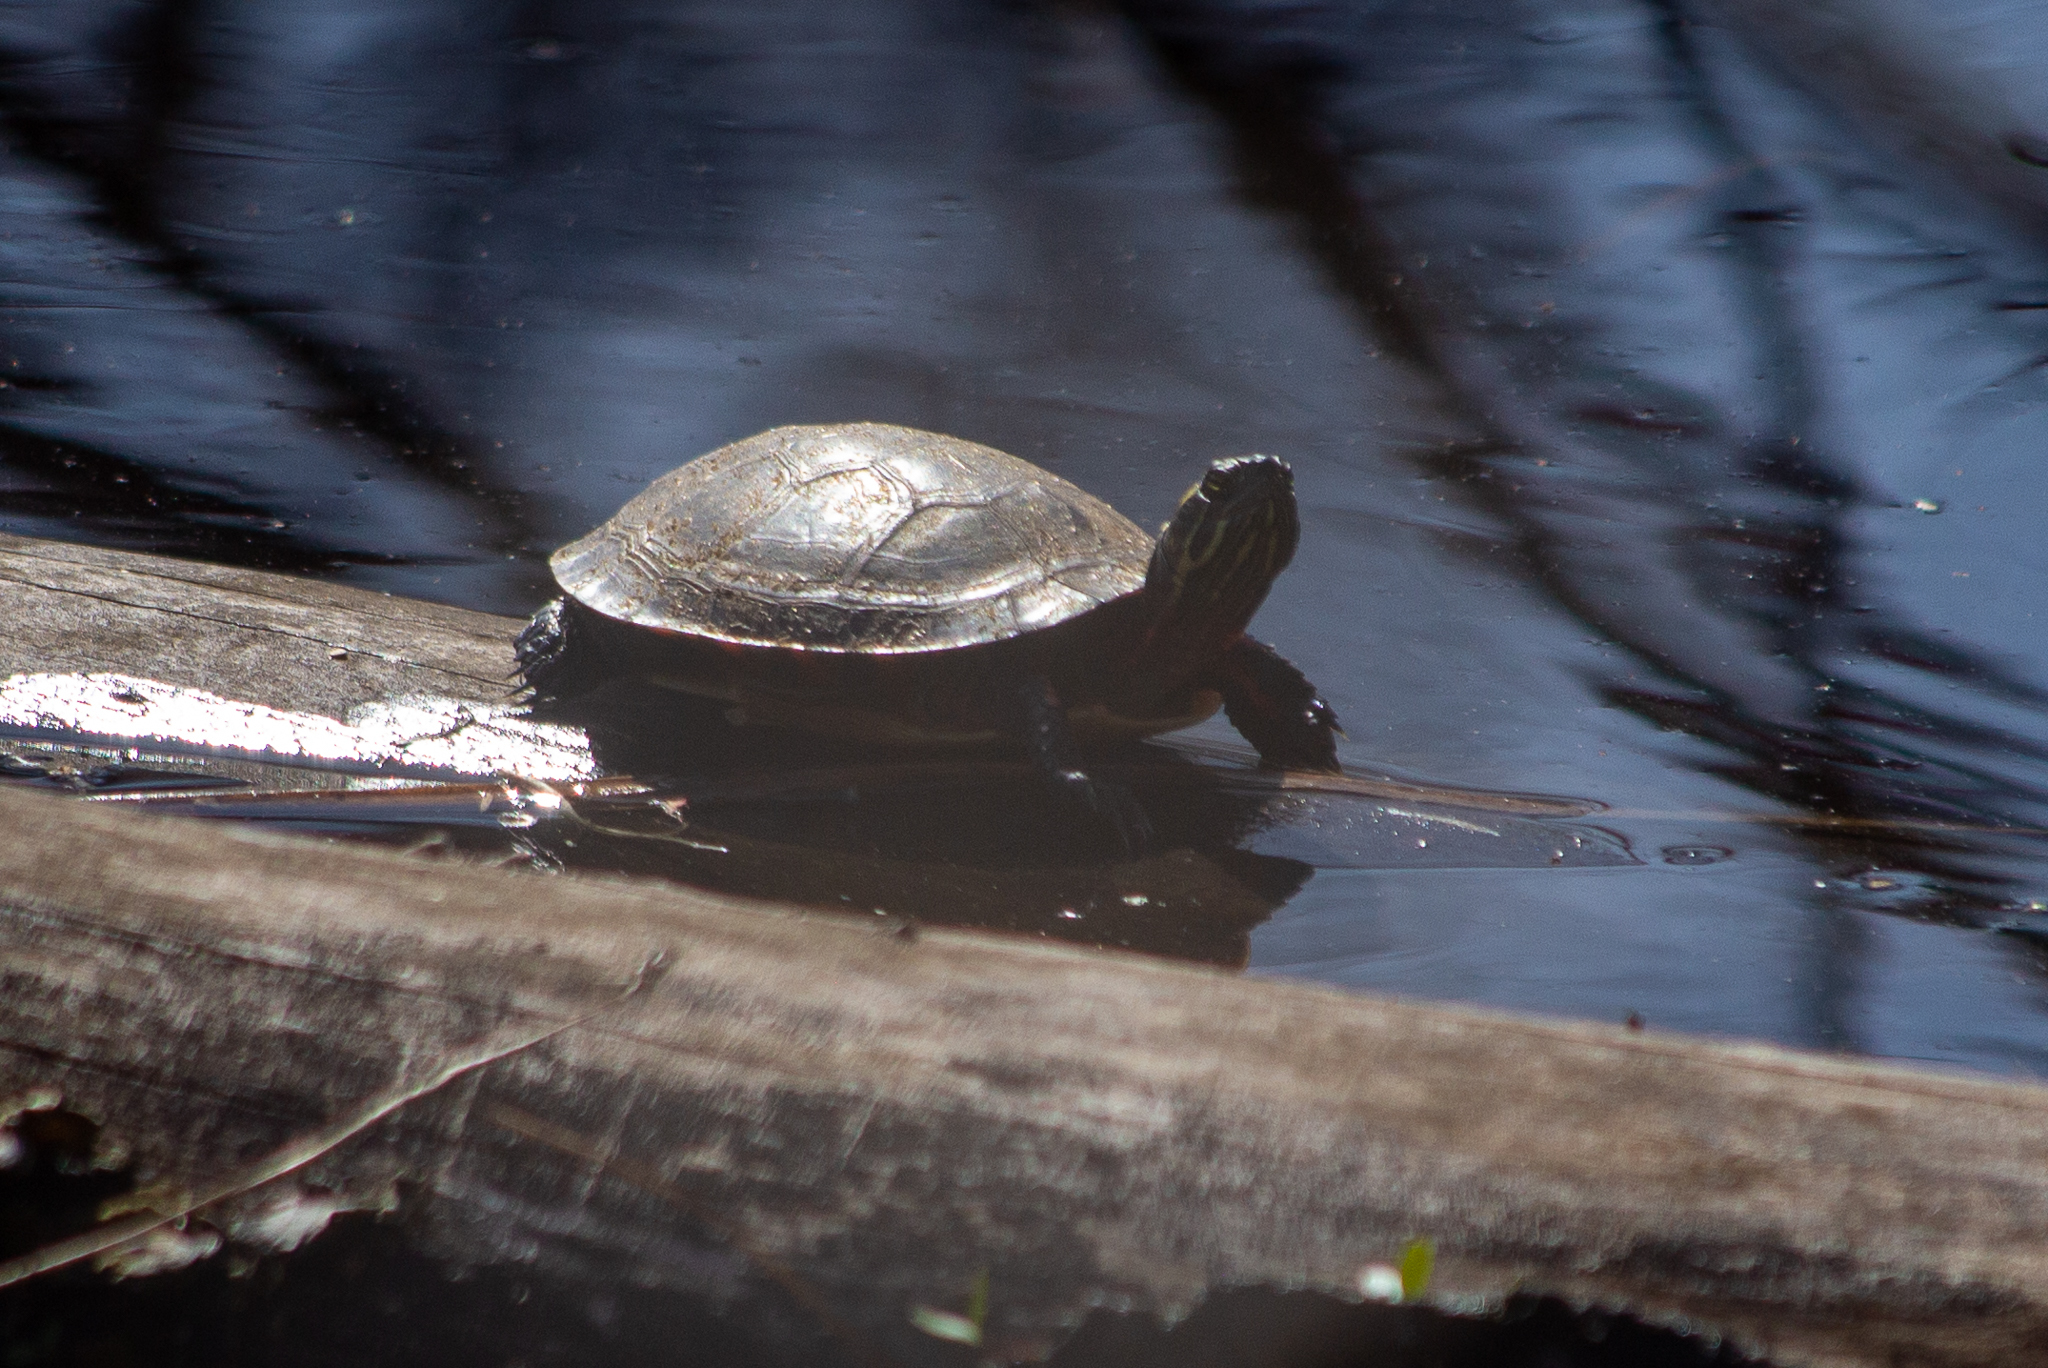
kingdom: Animalia
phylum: Chordata
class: Testudines
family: Emydidae
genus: Chrysemys
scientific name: Chrysemys picta
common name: Painted turtle
